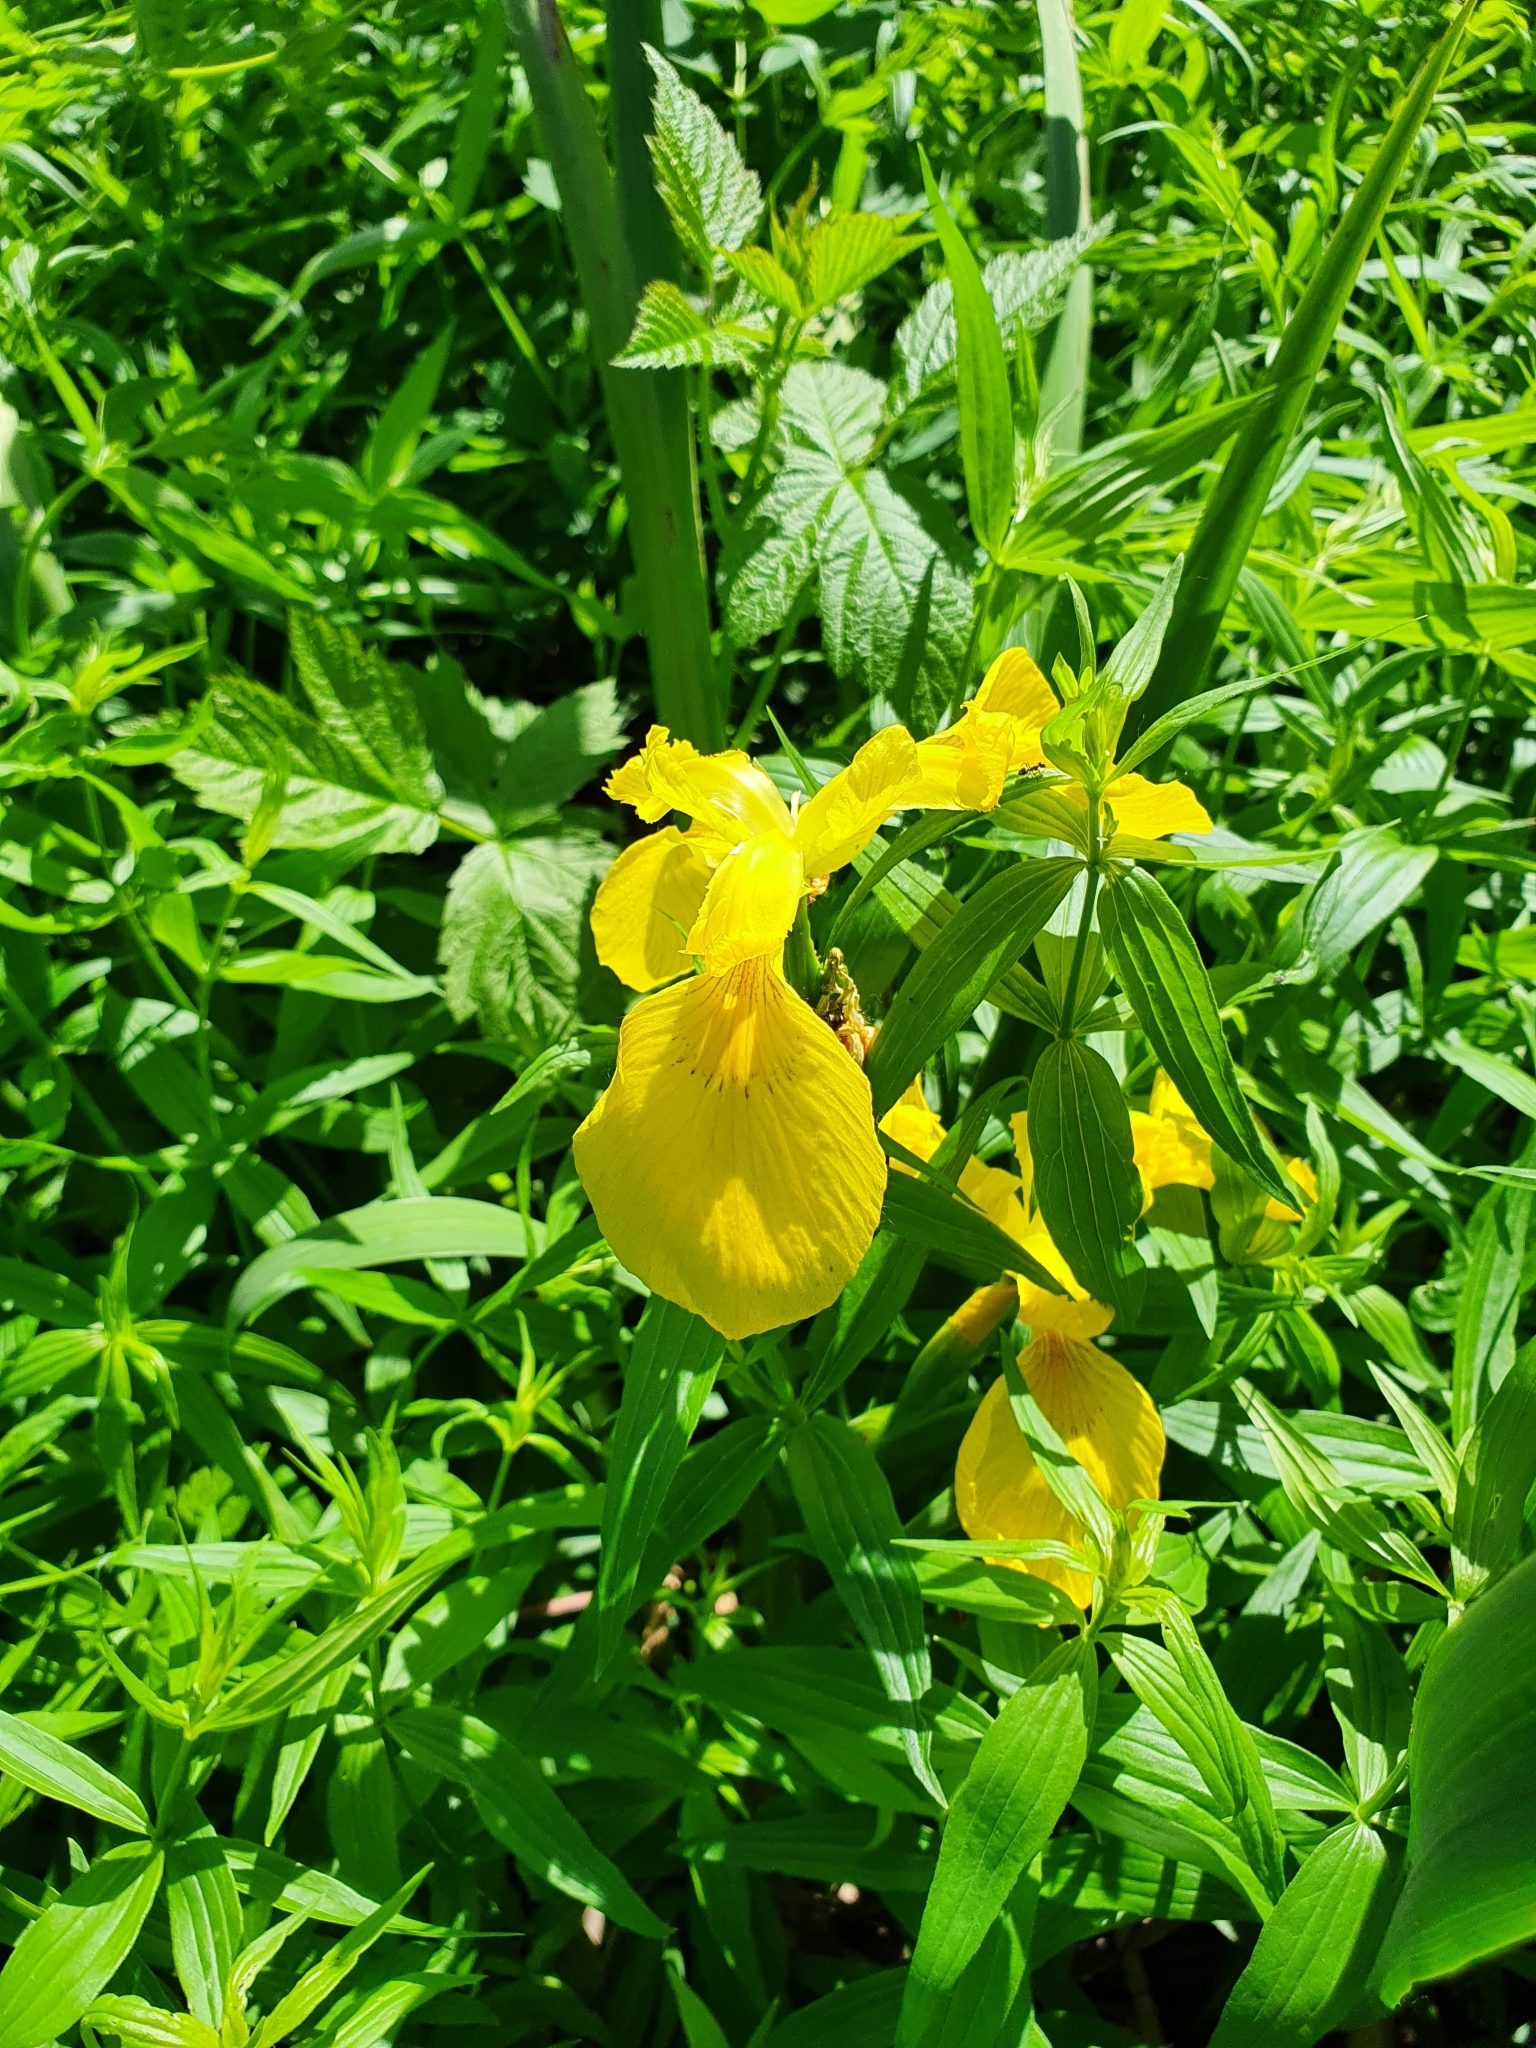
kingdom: Plantae
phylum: Tracheophyta
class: Liliopsida
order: Asparagales
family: Iridaceae
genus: Iris
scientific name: Iris pseudacorus
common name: Yellow flag
